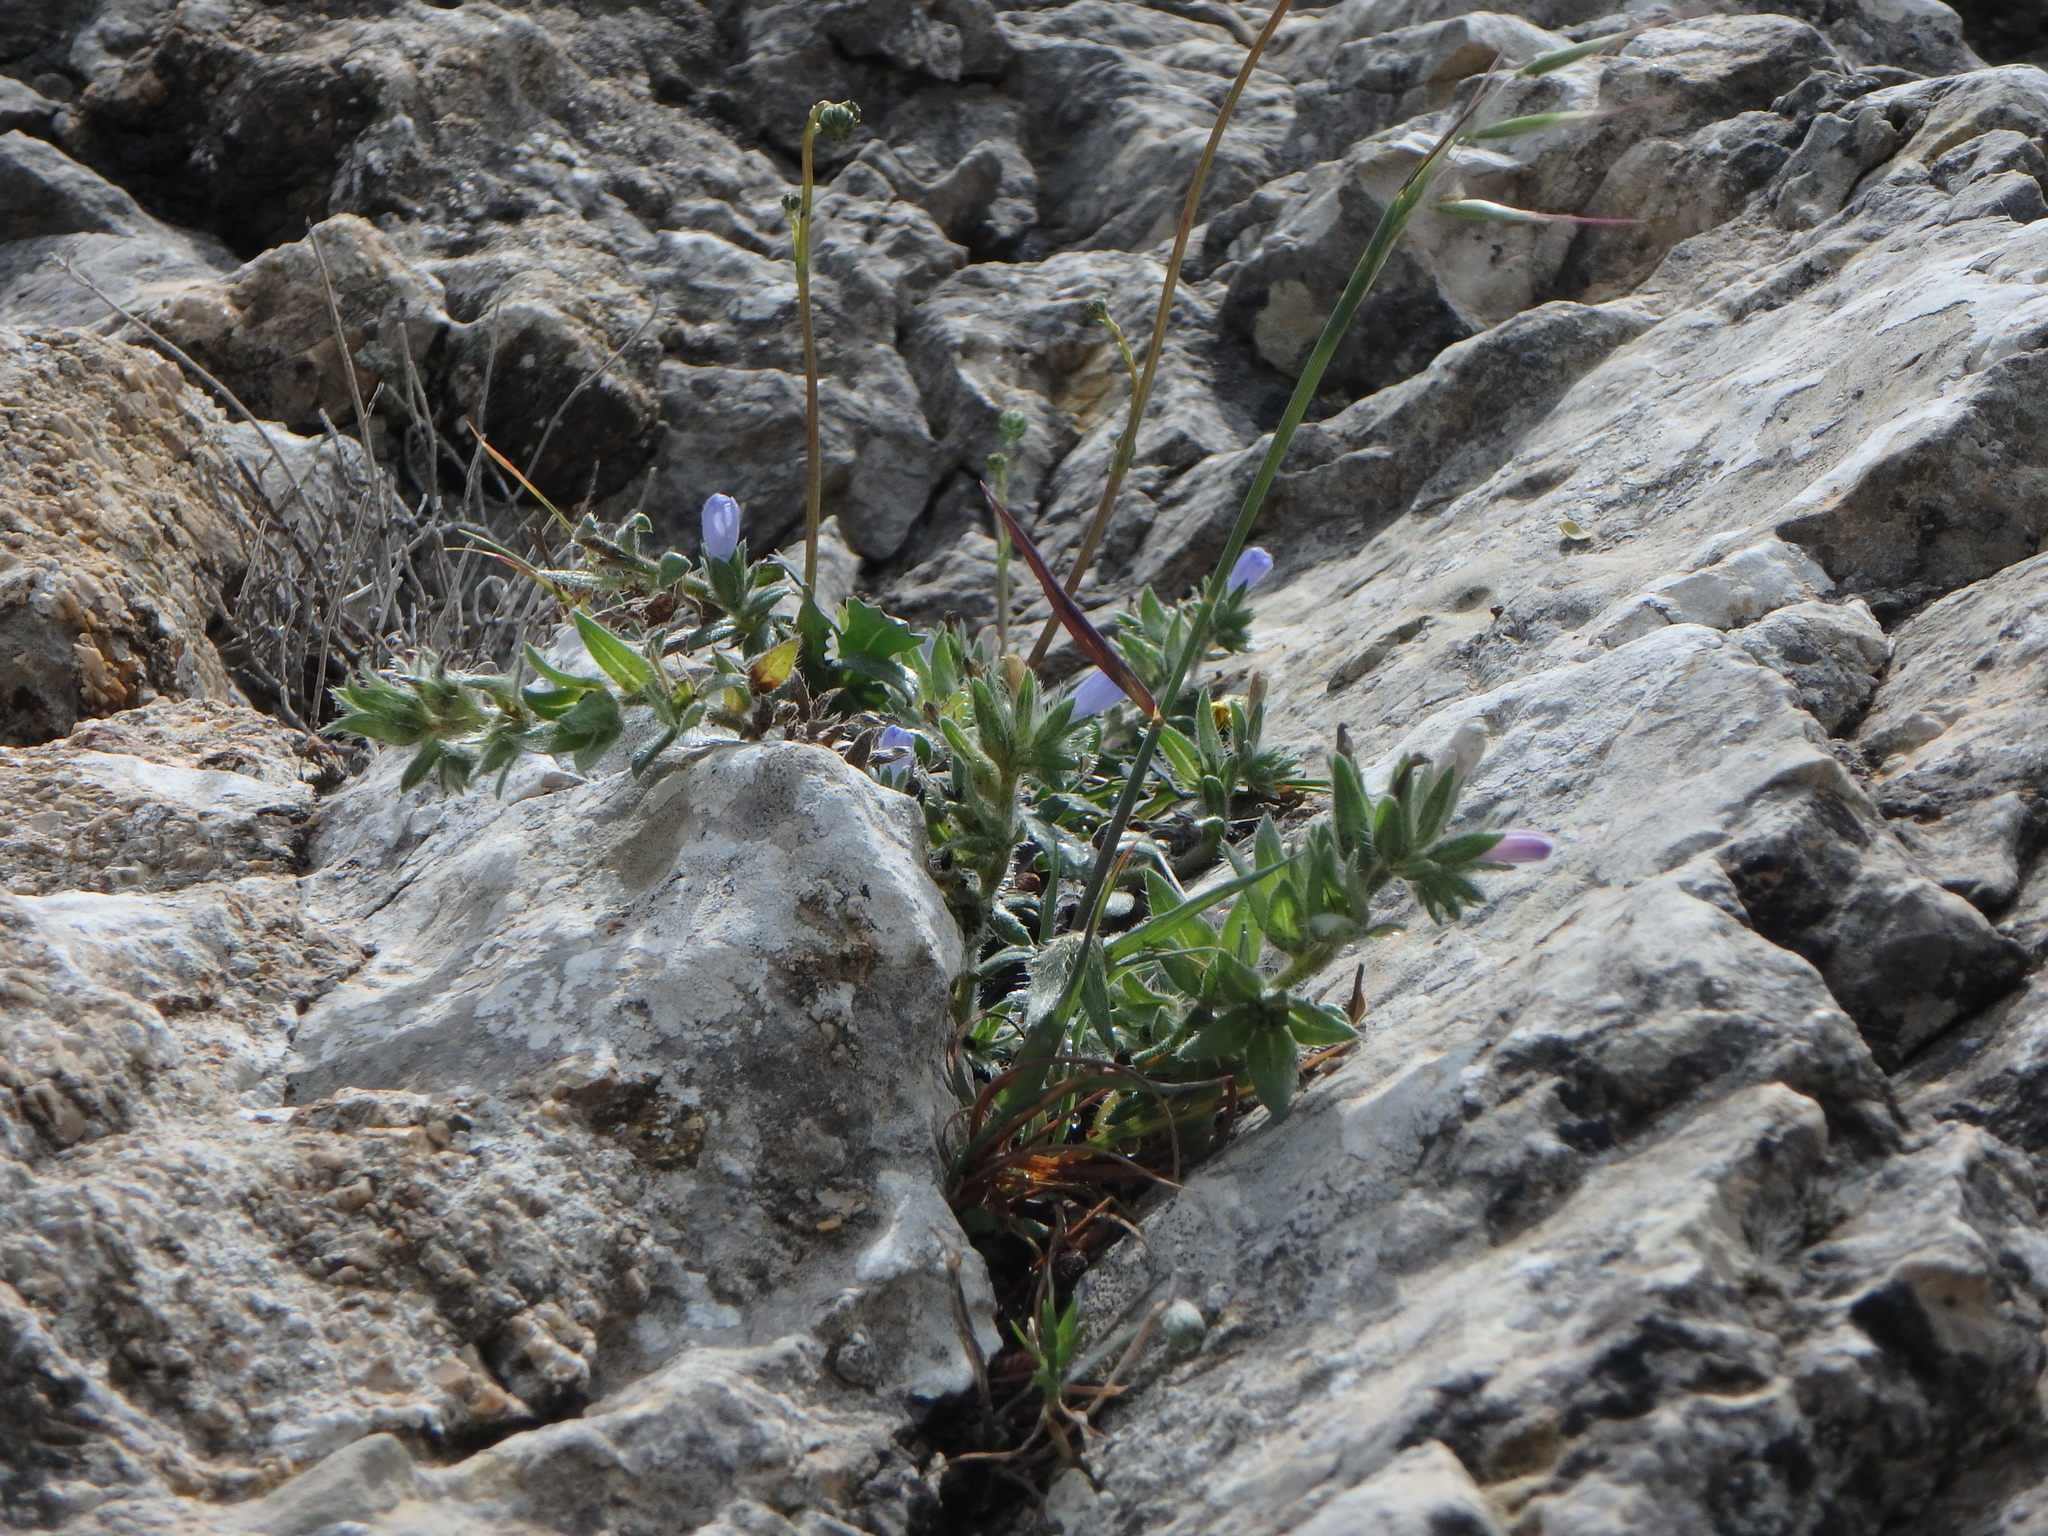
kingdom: Plantae
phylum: Tracheophyta
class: Magnoliopsida
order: Boraginales
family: Boraginaceae
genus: Echium
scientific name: Echium parviflorum
